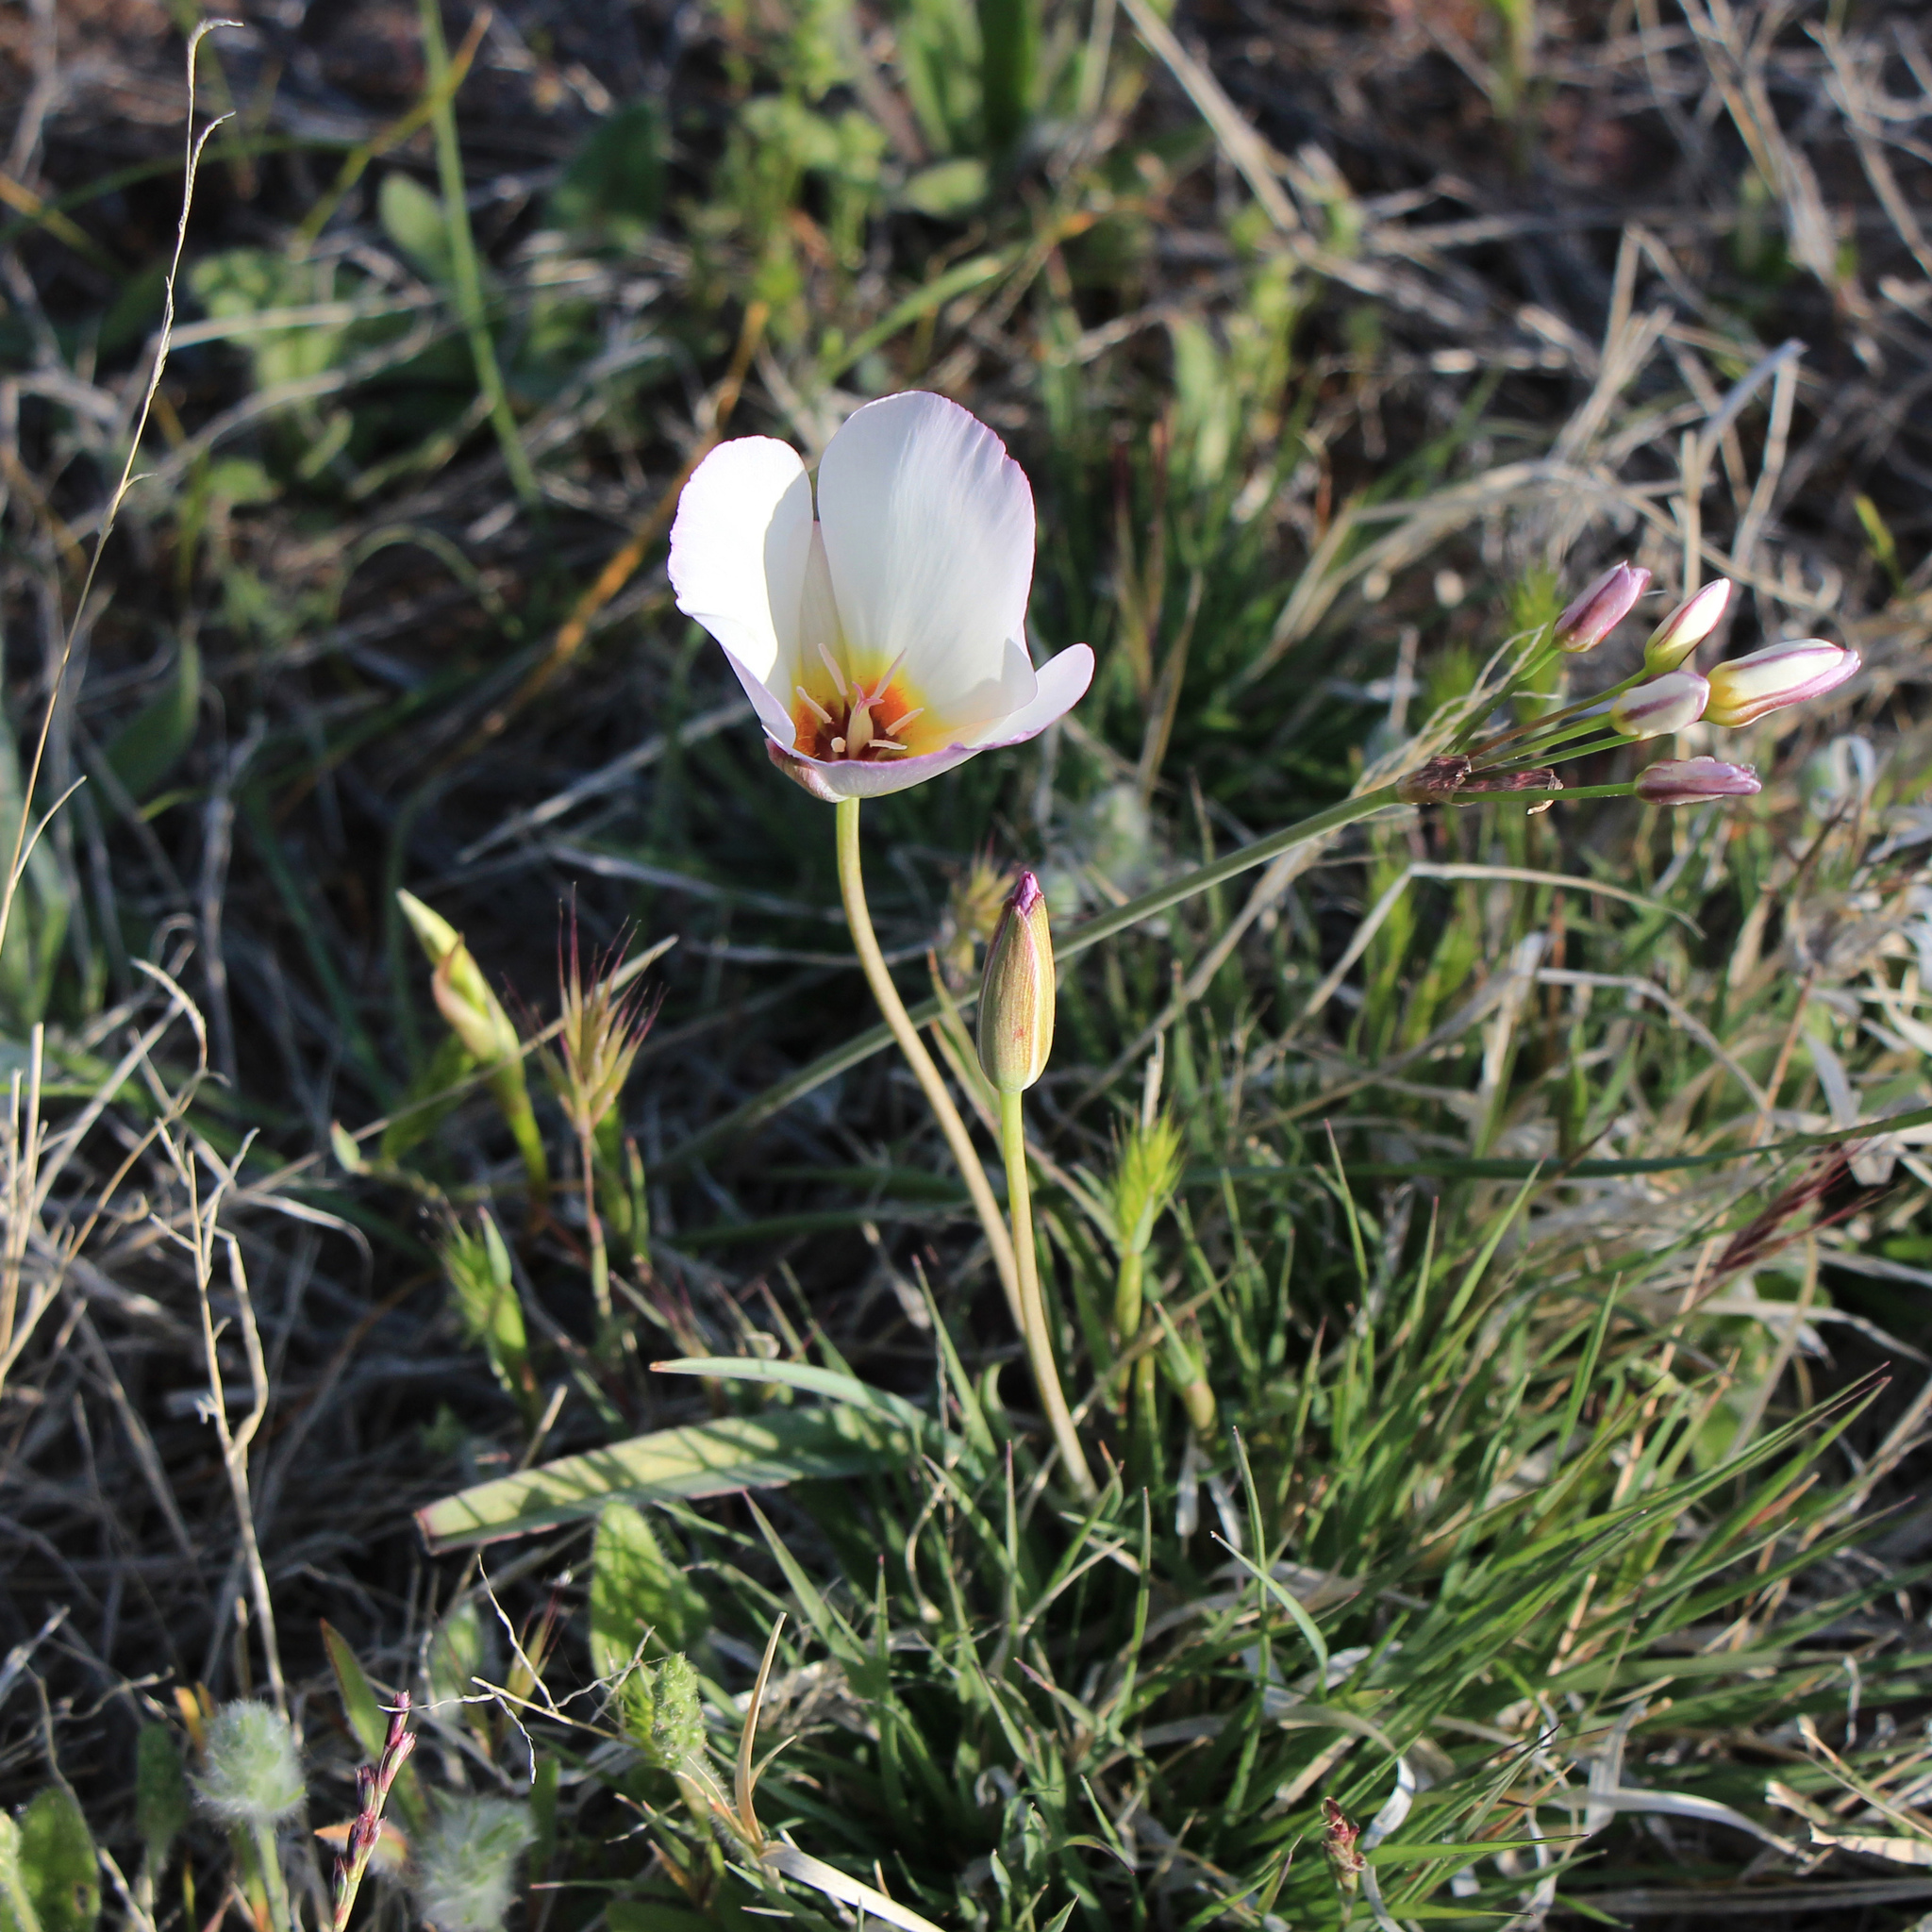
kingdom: Plantae
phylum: Tracheophyta
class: Liliopsida
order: Liliales
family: Liliaceae
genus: Calochortus
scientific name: Calochortus flexuosus
